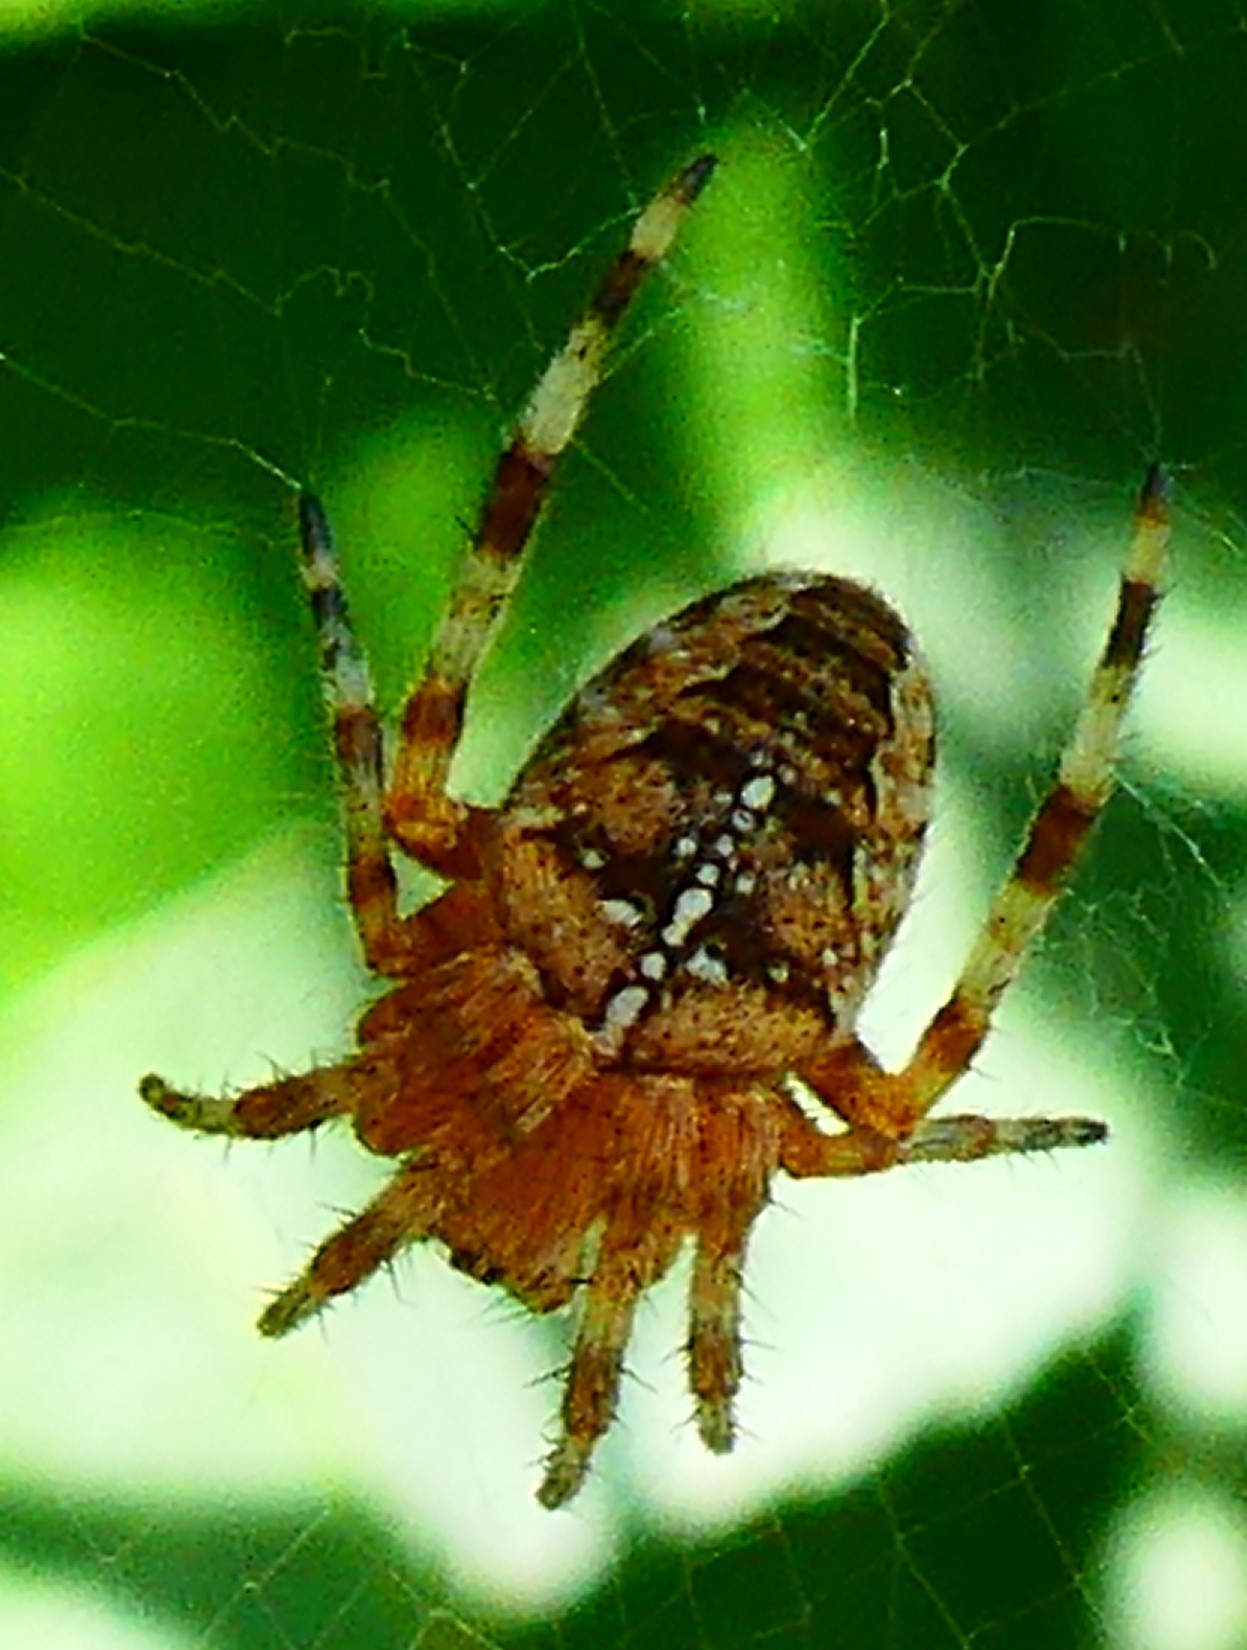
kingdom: Animalia
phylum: Arthropoda
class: Arachnida
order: Araneae
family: Araneidae
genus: Araneus
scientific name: Araneus diadematus
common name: Cross orbweaver
